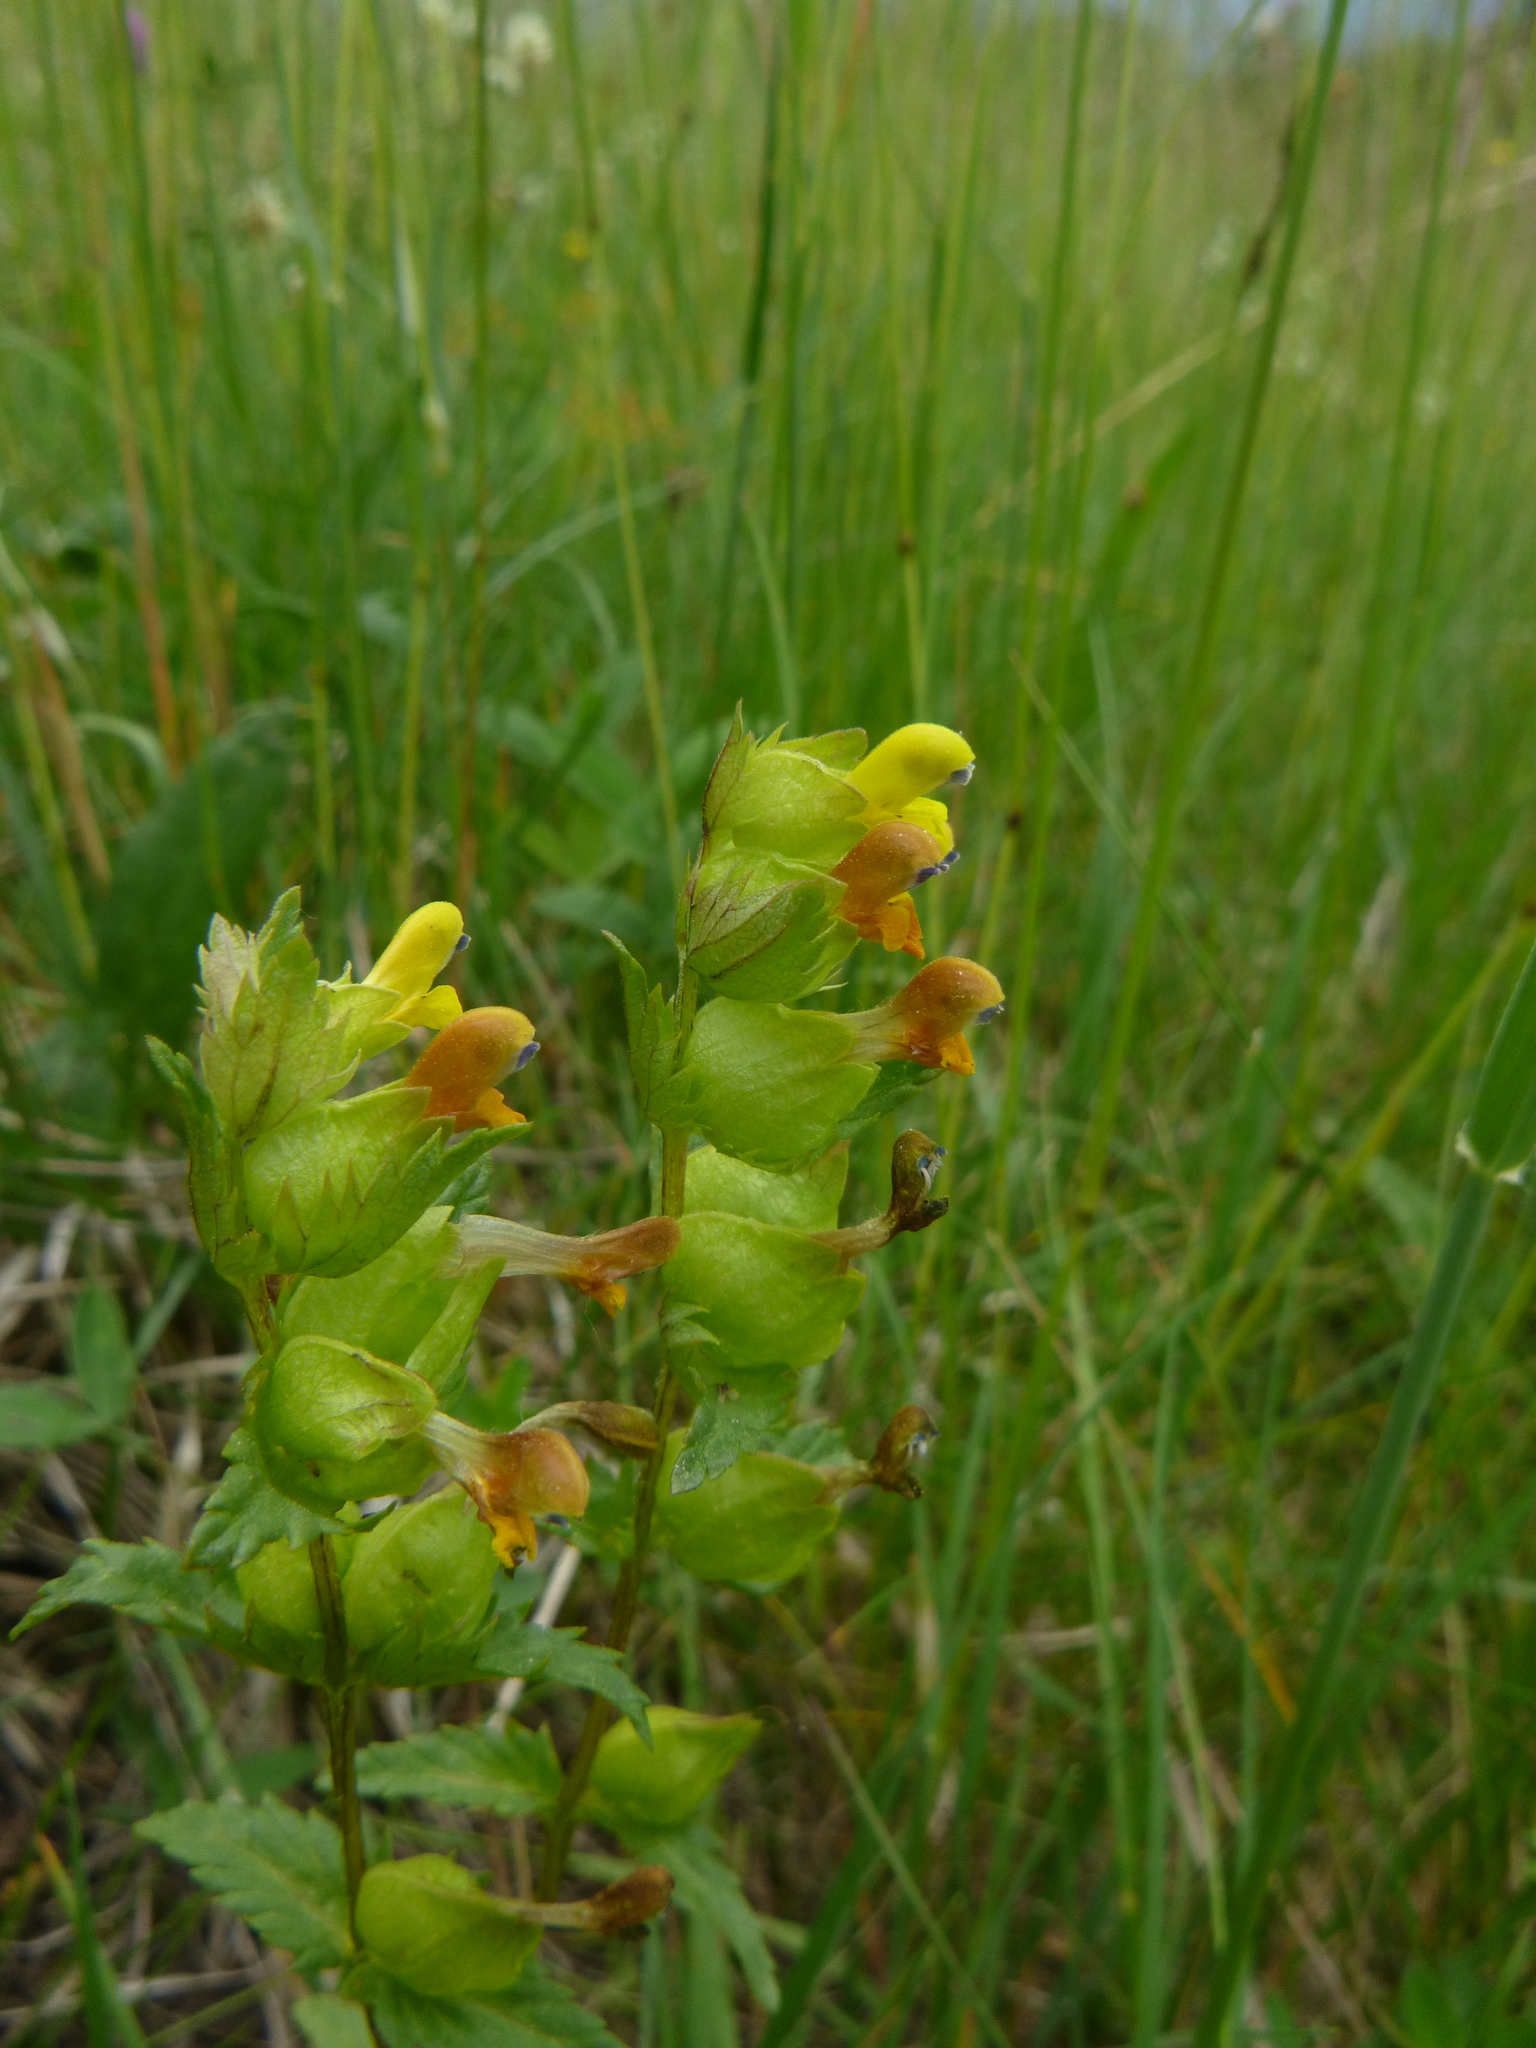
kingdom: Plantae
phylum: Tracheophyta
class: Magnoliopsida
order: Lamiales
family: Orobanchaceae
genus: Rhinanthus
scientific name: Rhinanthus minor
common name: Yellow-rattle
